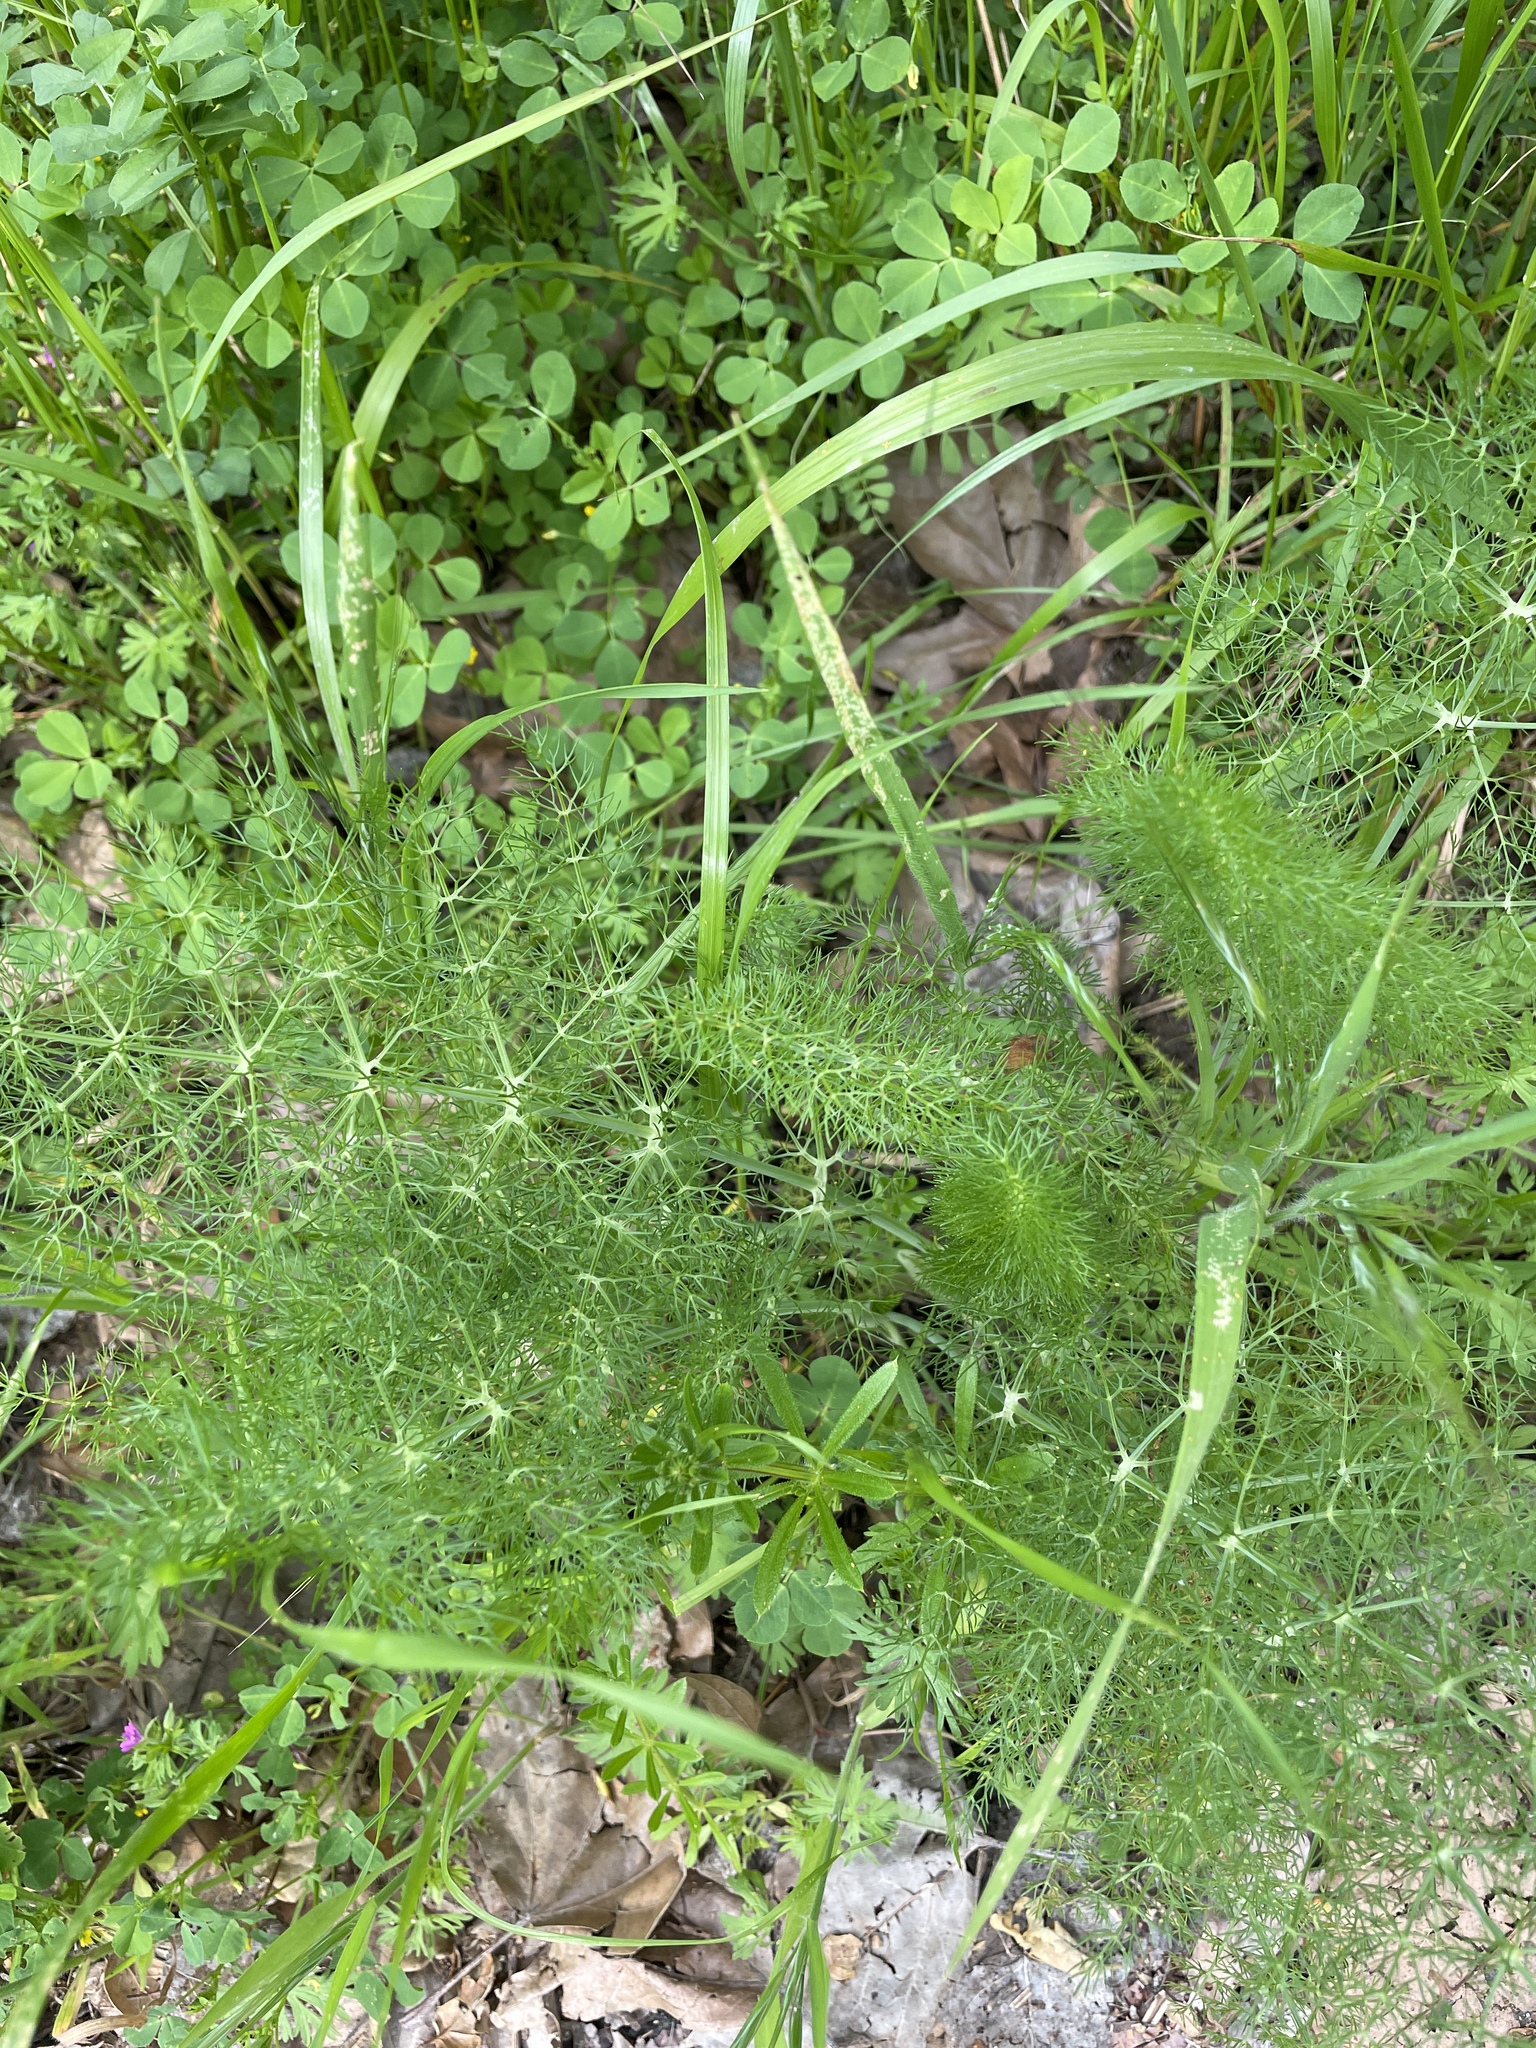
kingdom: Plantae
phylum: Tracheophyta
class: Magnoliopsida
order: Apiales
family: Apiaceae
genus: Foeniculum
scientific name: Foeniculum vulgare
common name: Fennel
